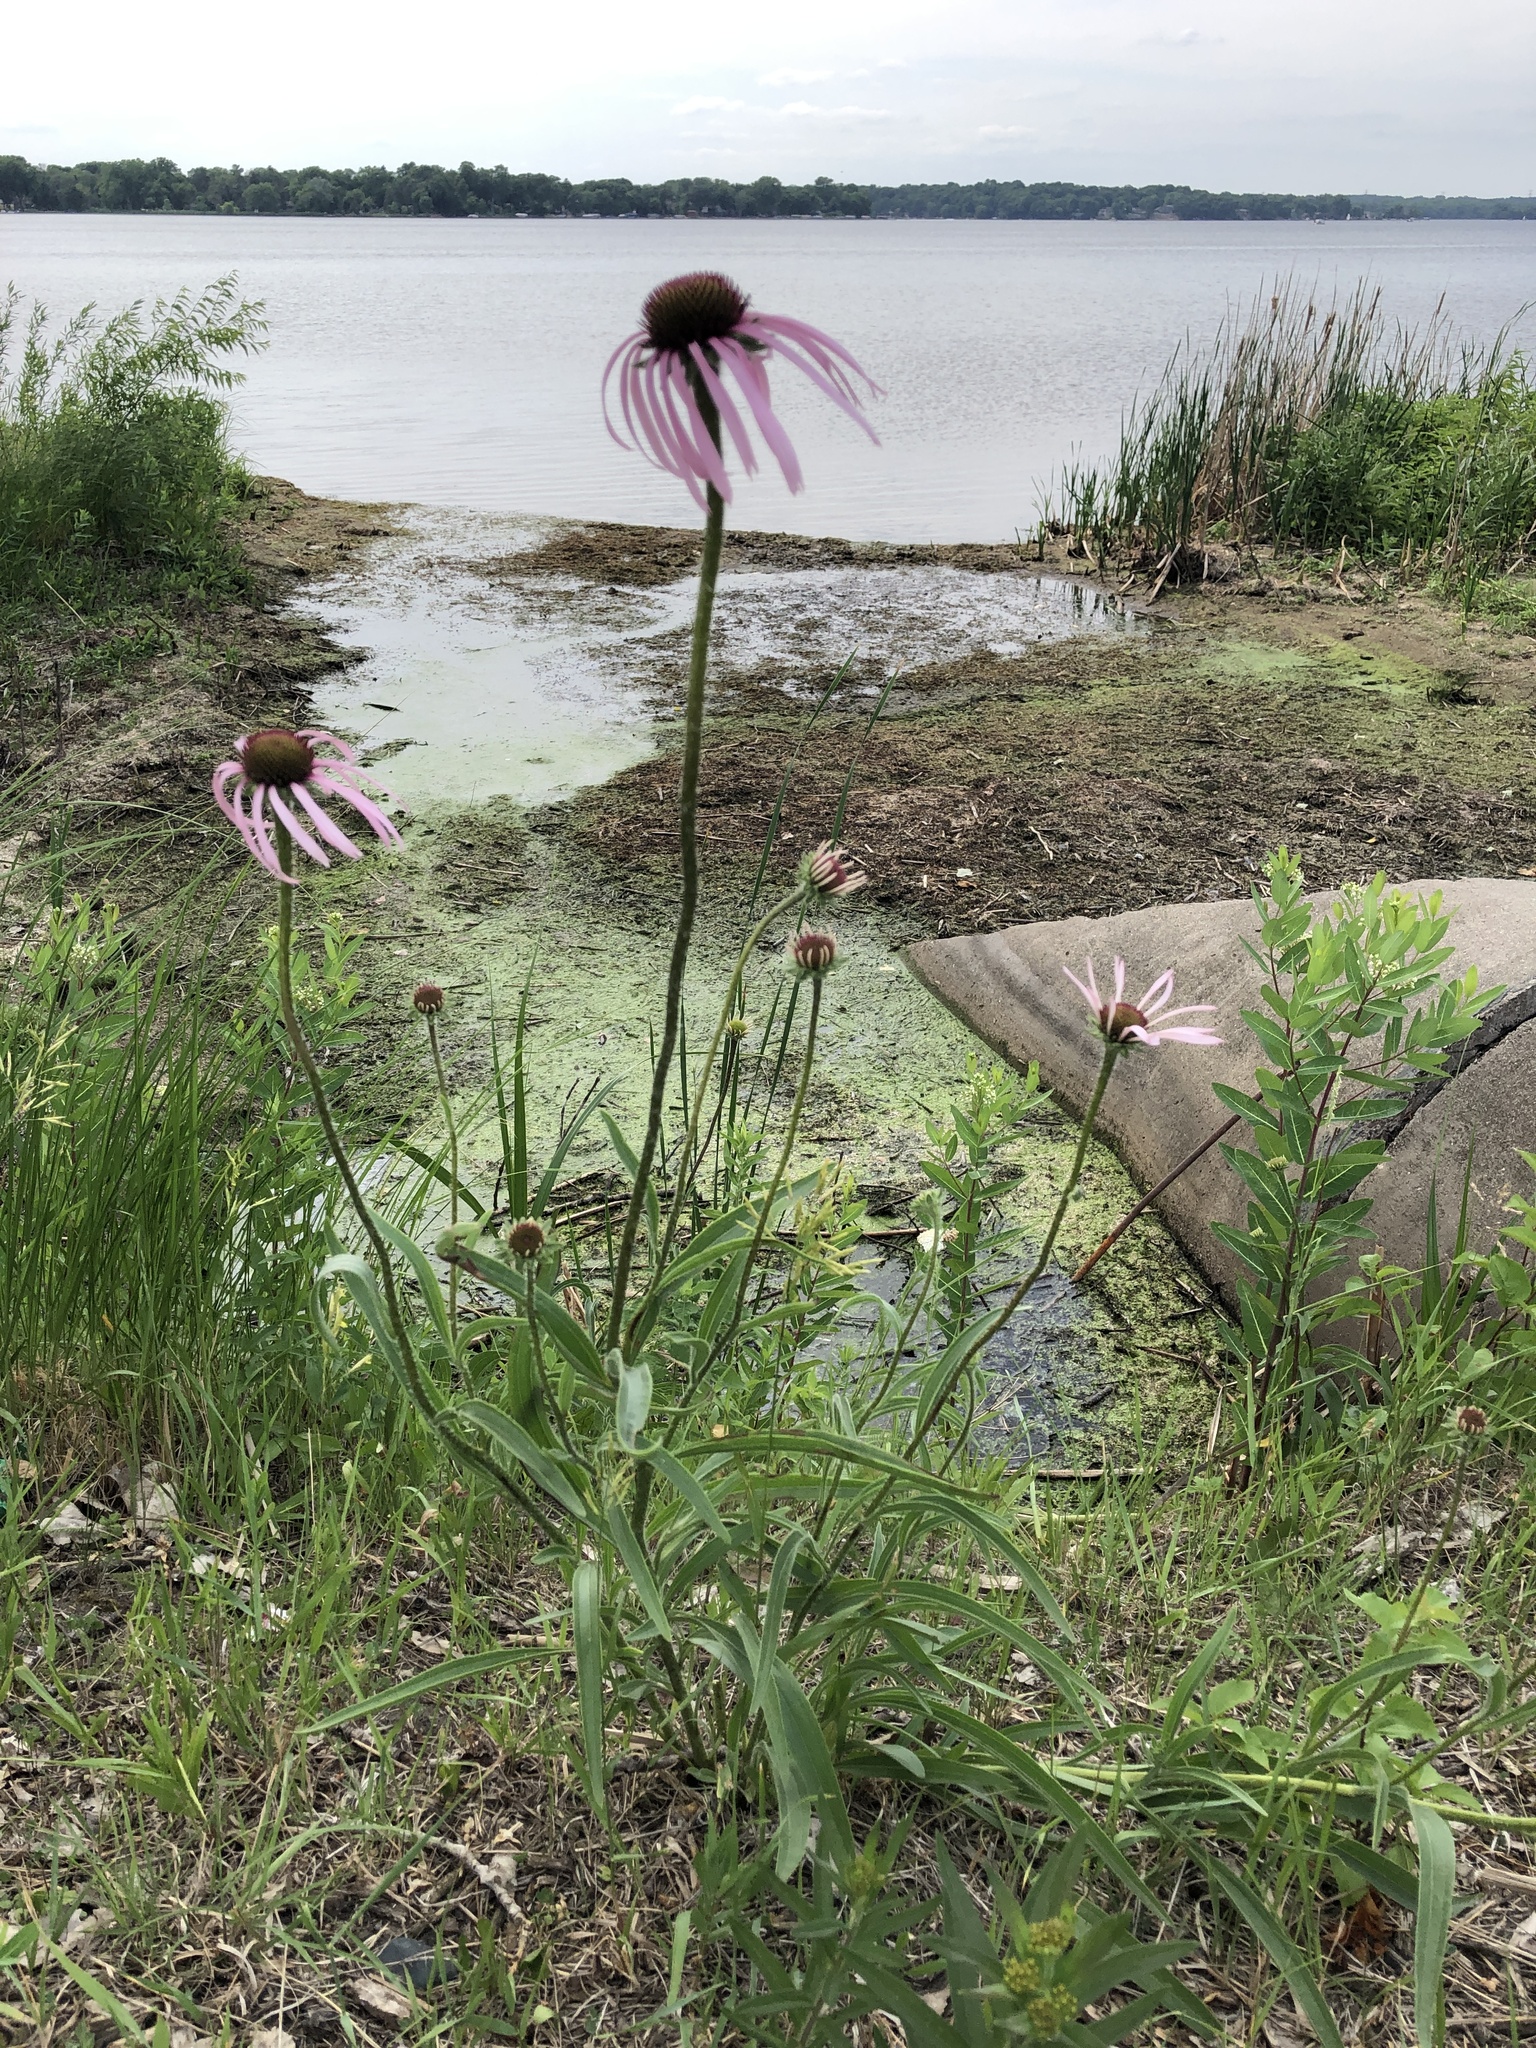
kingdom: Plantae
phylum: Tracheophyta
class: Magnoliopsida
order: Asterales
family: Asteraceae
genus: Echinacea
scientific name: Echinacea pallida
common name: Pale echinacea
